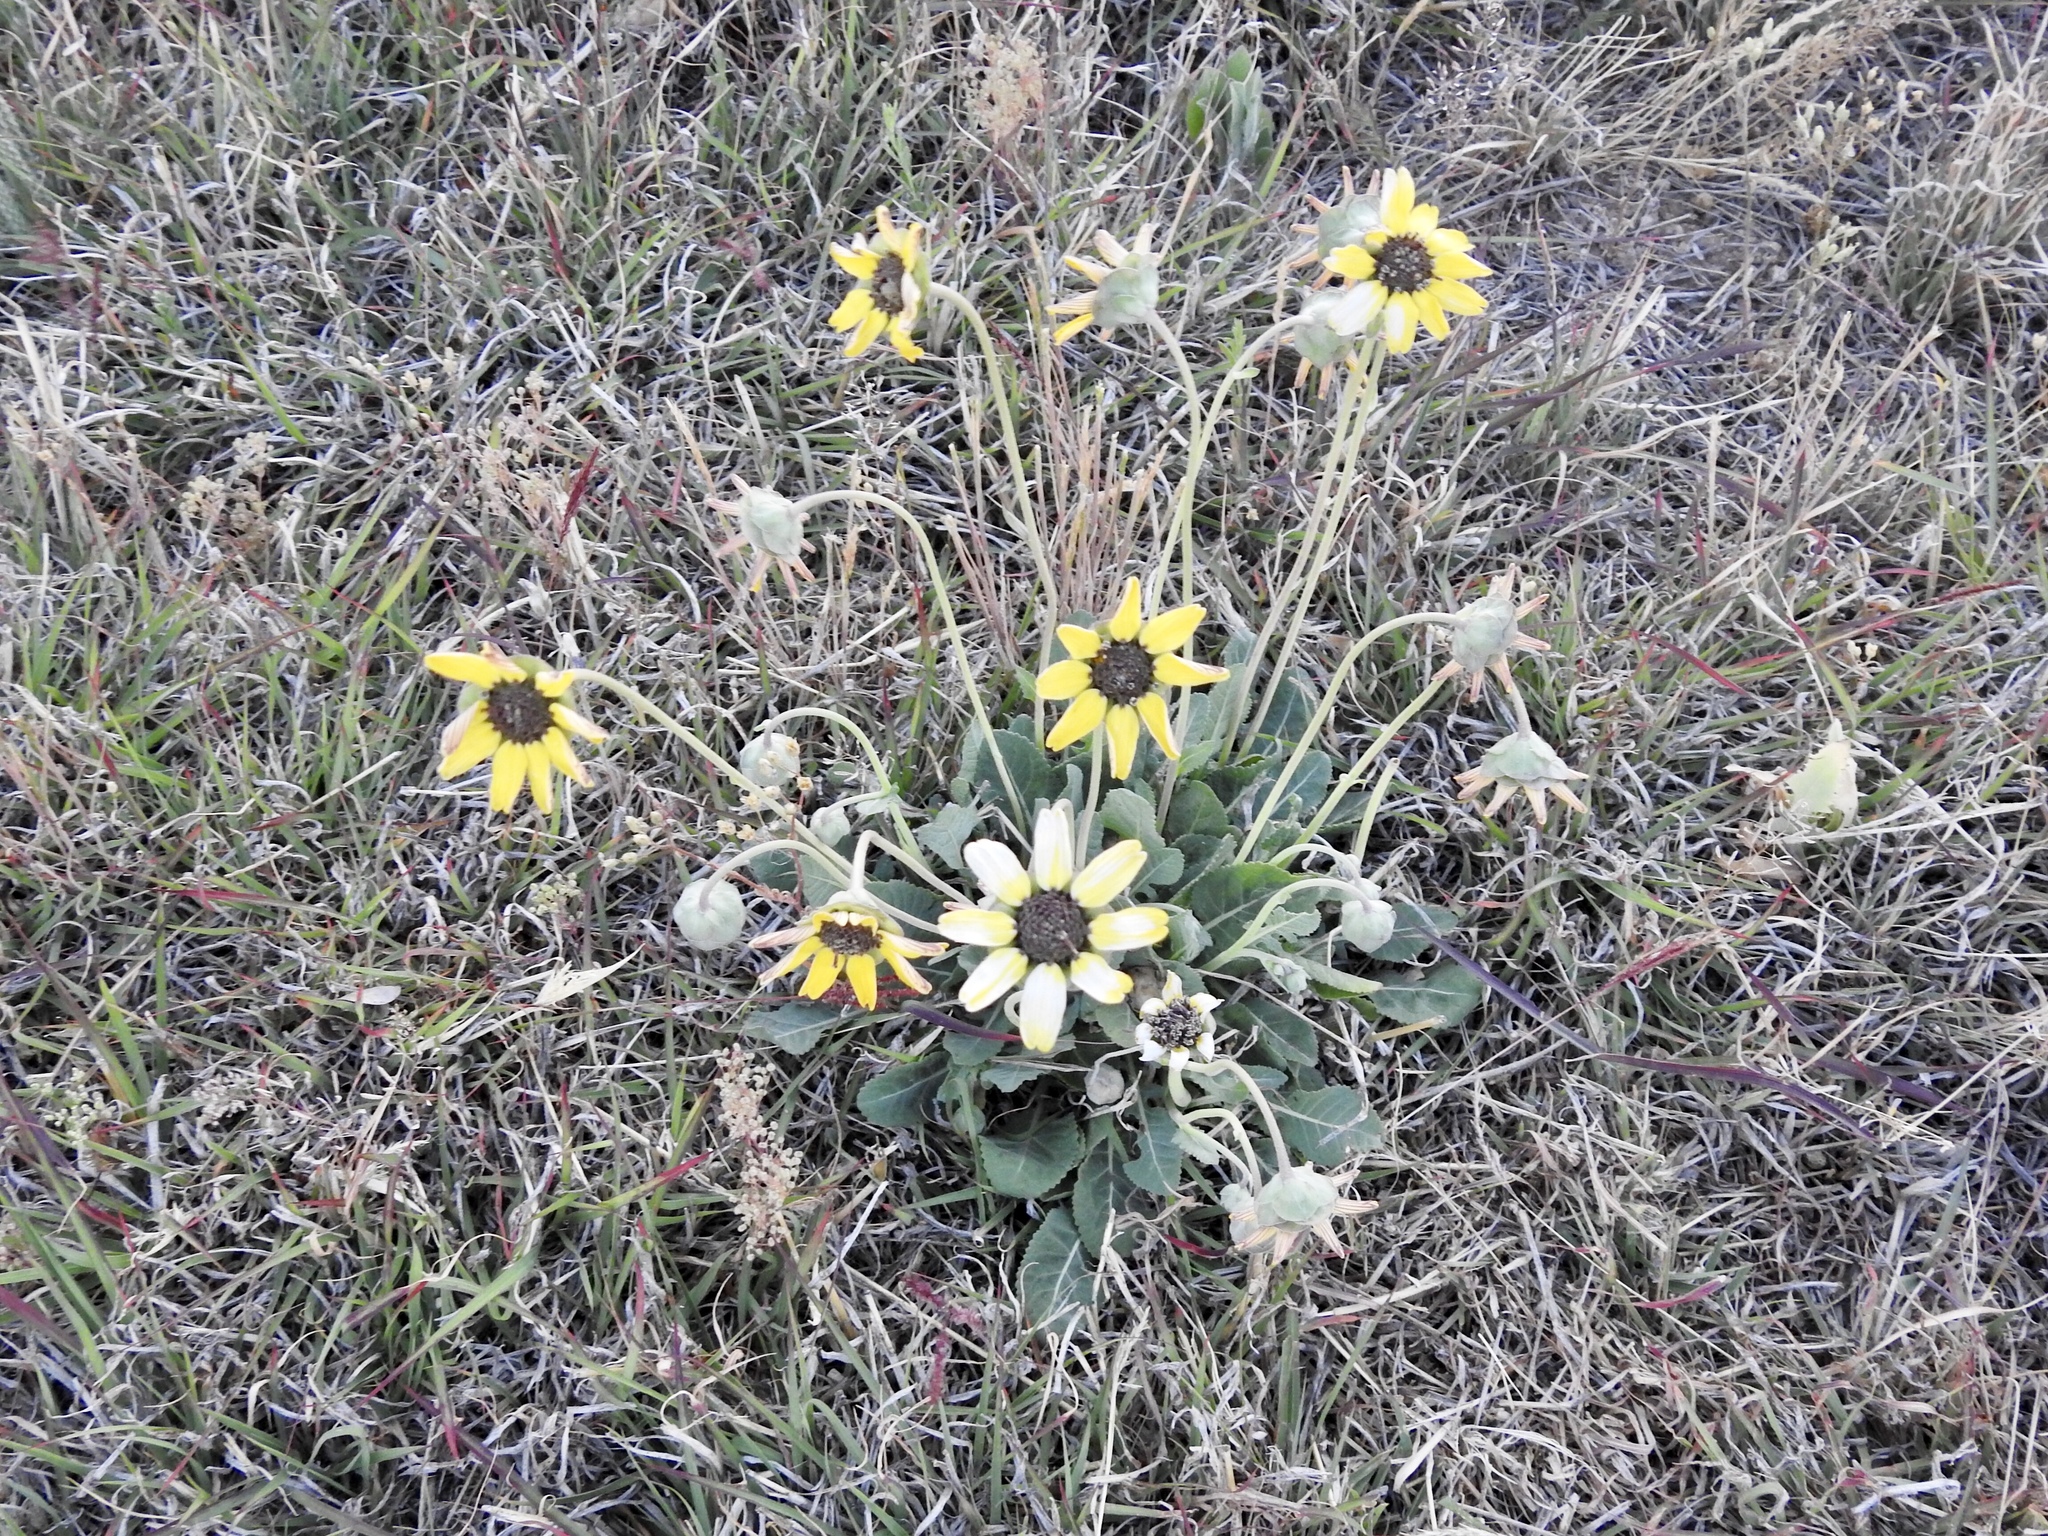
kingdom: Plantae
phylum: Tracheophyta
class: Magnoliopsida
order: Asterales
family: Asteraceae
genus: Berlandiera
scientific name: Berlandiera lyrata
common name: Chocolate-flower
